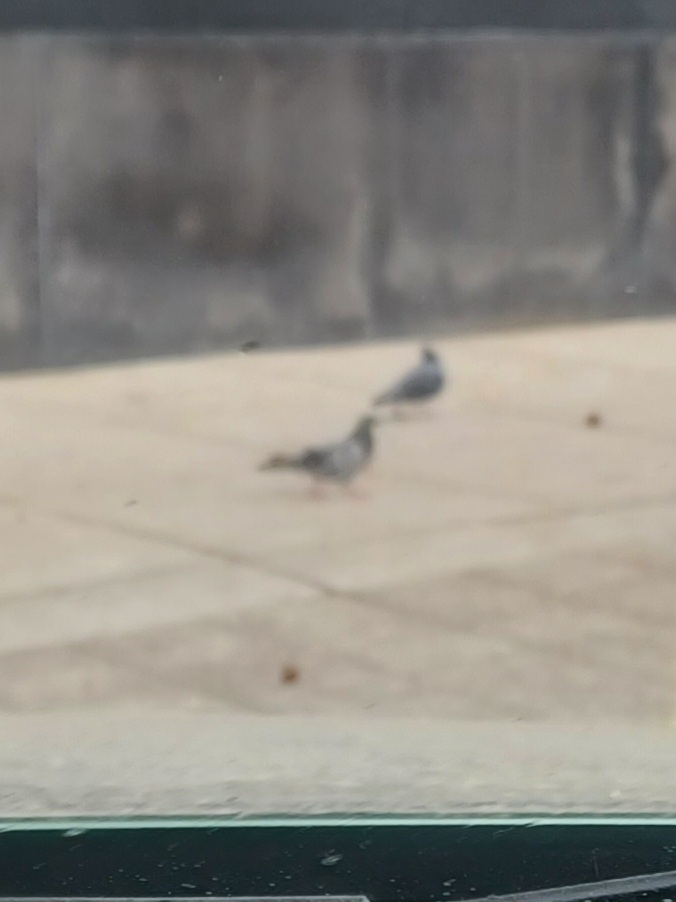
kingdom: Animalia
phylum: Chordata
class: Aves
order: Columbiformes
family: Columbidae
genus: Columba
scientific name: Columba livia
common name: Rock pigeon
